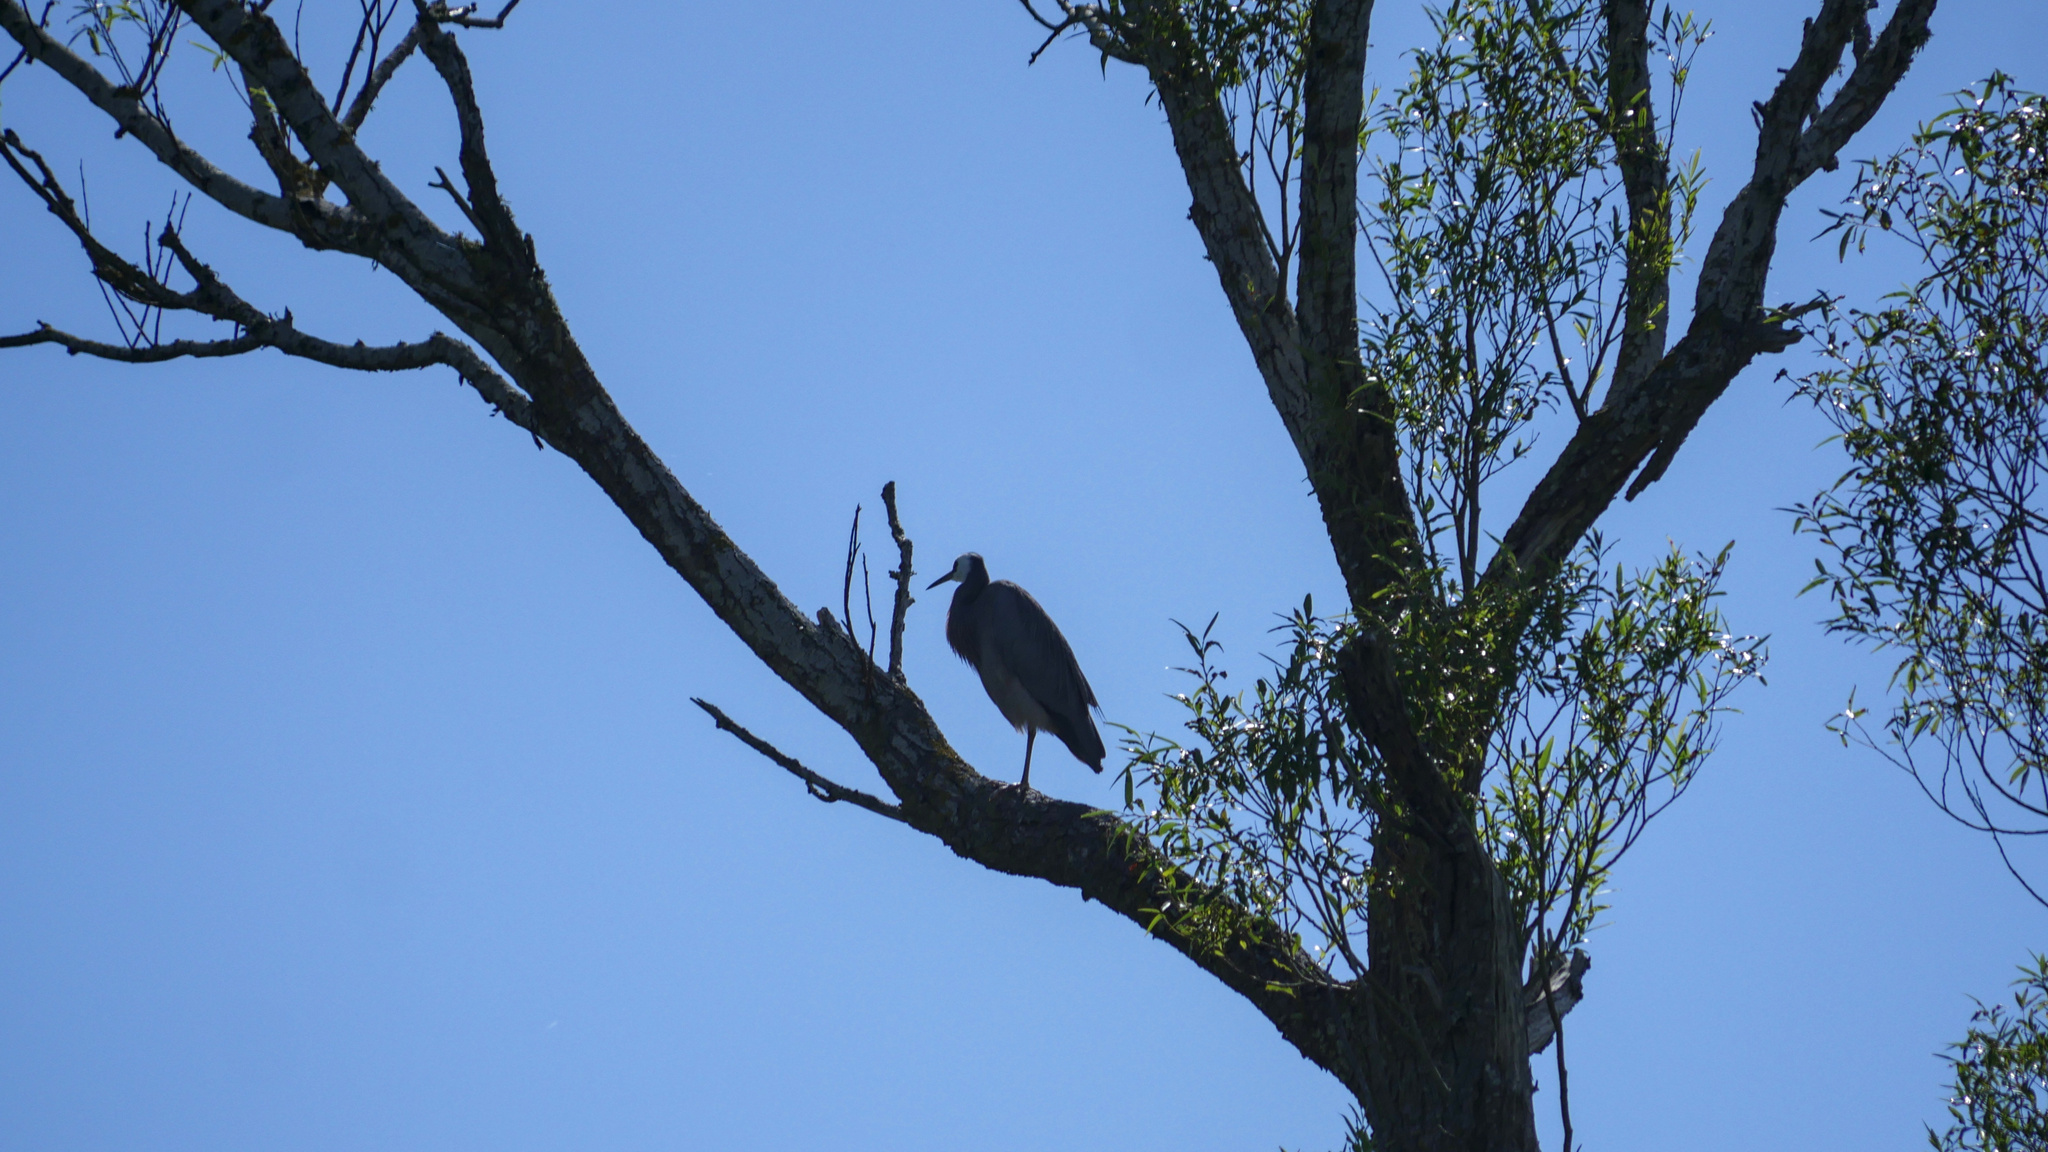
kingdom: Animalia
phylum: Chordata
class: Aves
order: Pelecaniformes
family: Ardeidae
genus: Egretta
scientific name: Egretta novaehollandiae
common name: White-faced heron
